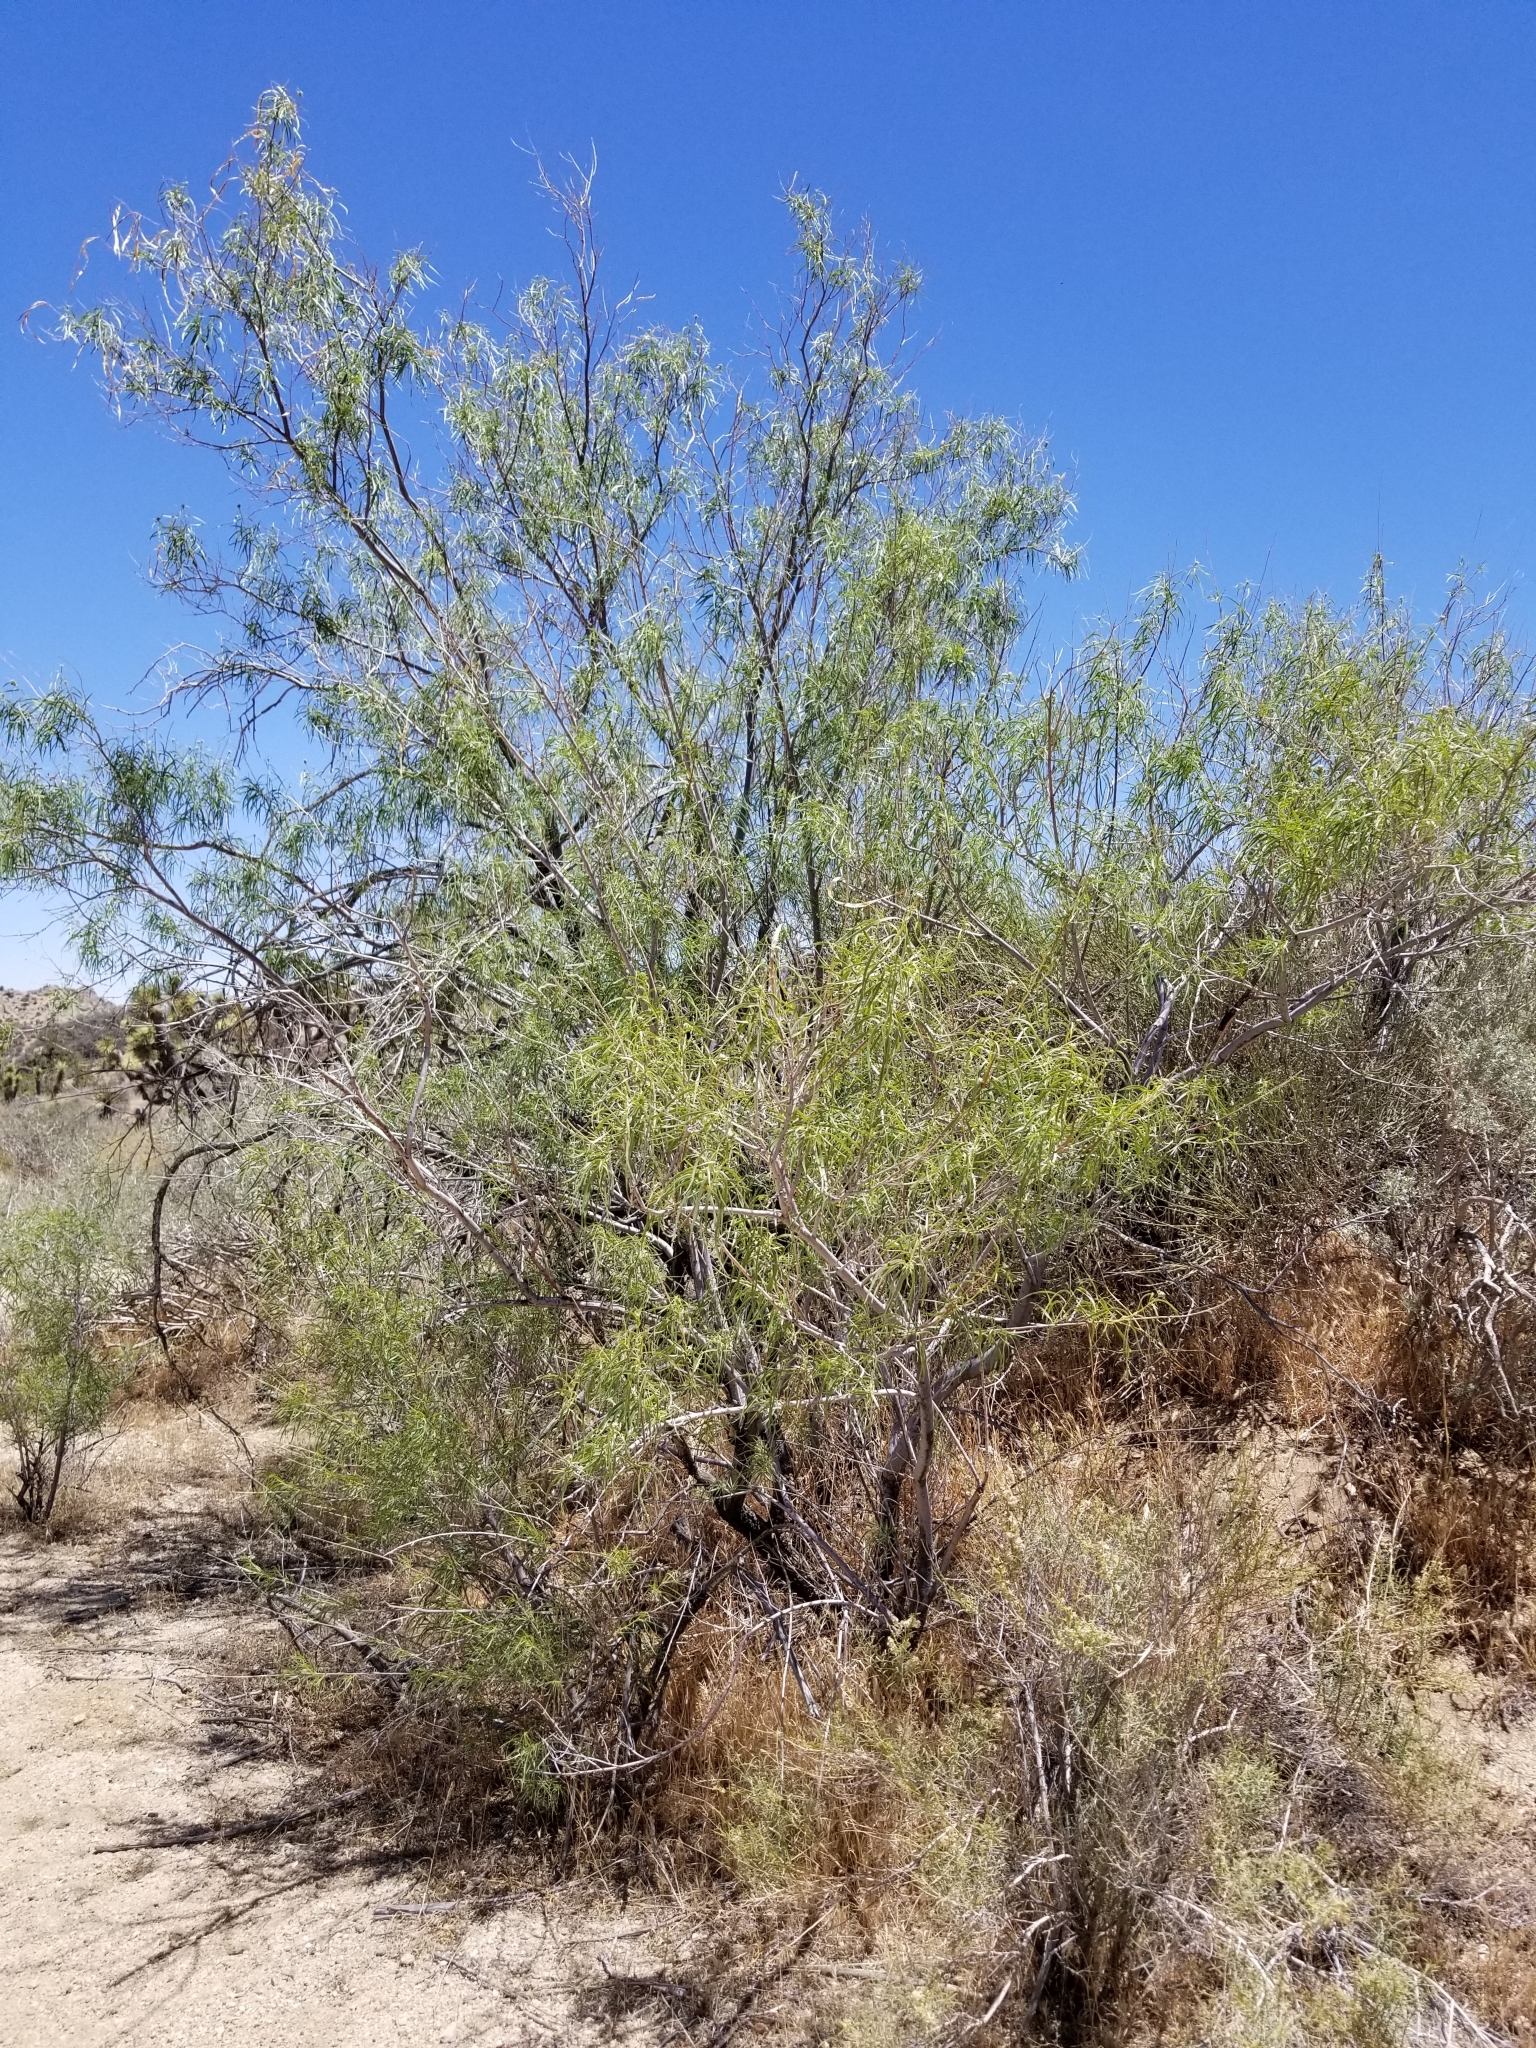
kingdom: Plantae
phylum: Tracheophyta
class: Magnoliopsida
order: Lamiales
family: Bignoniaceae
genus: Chilopsis
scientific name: Chilopsis linearis
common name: Desert-willow
